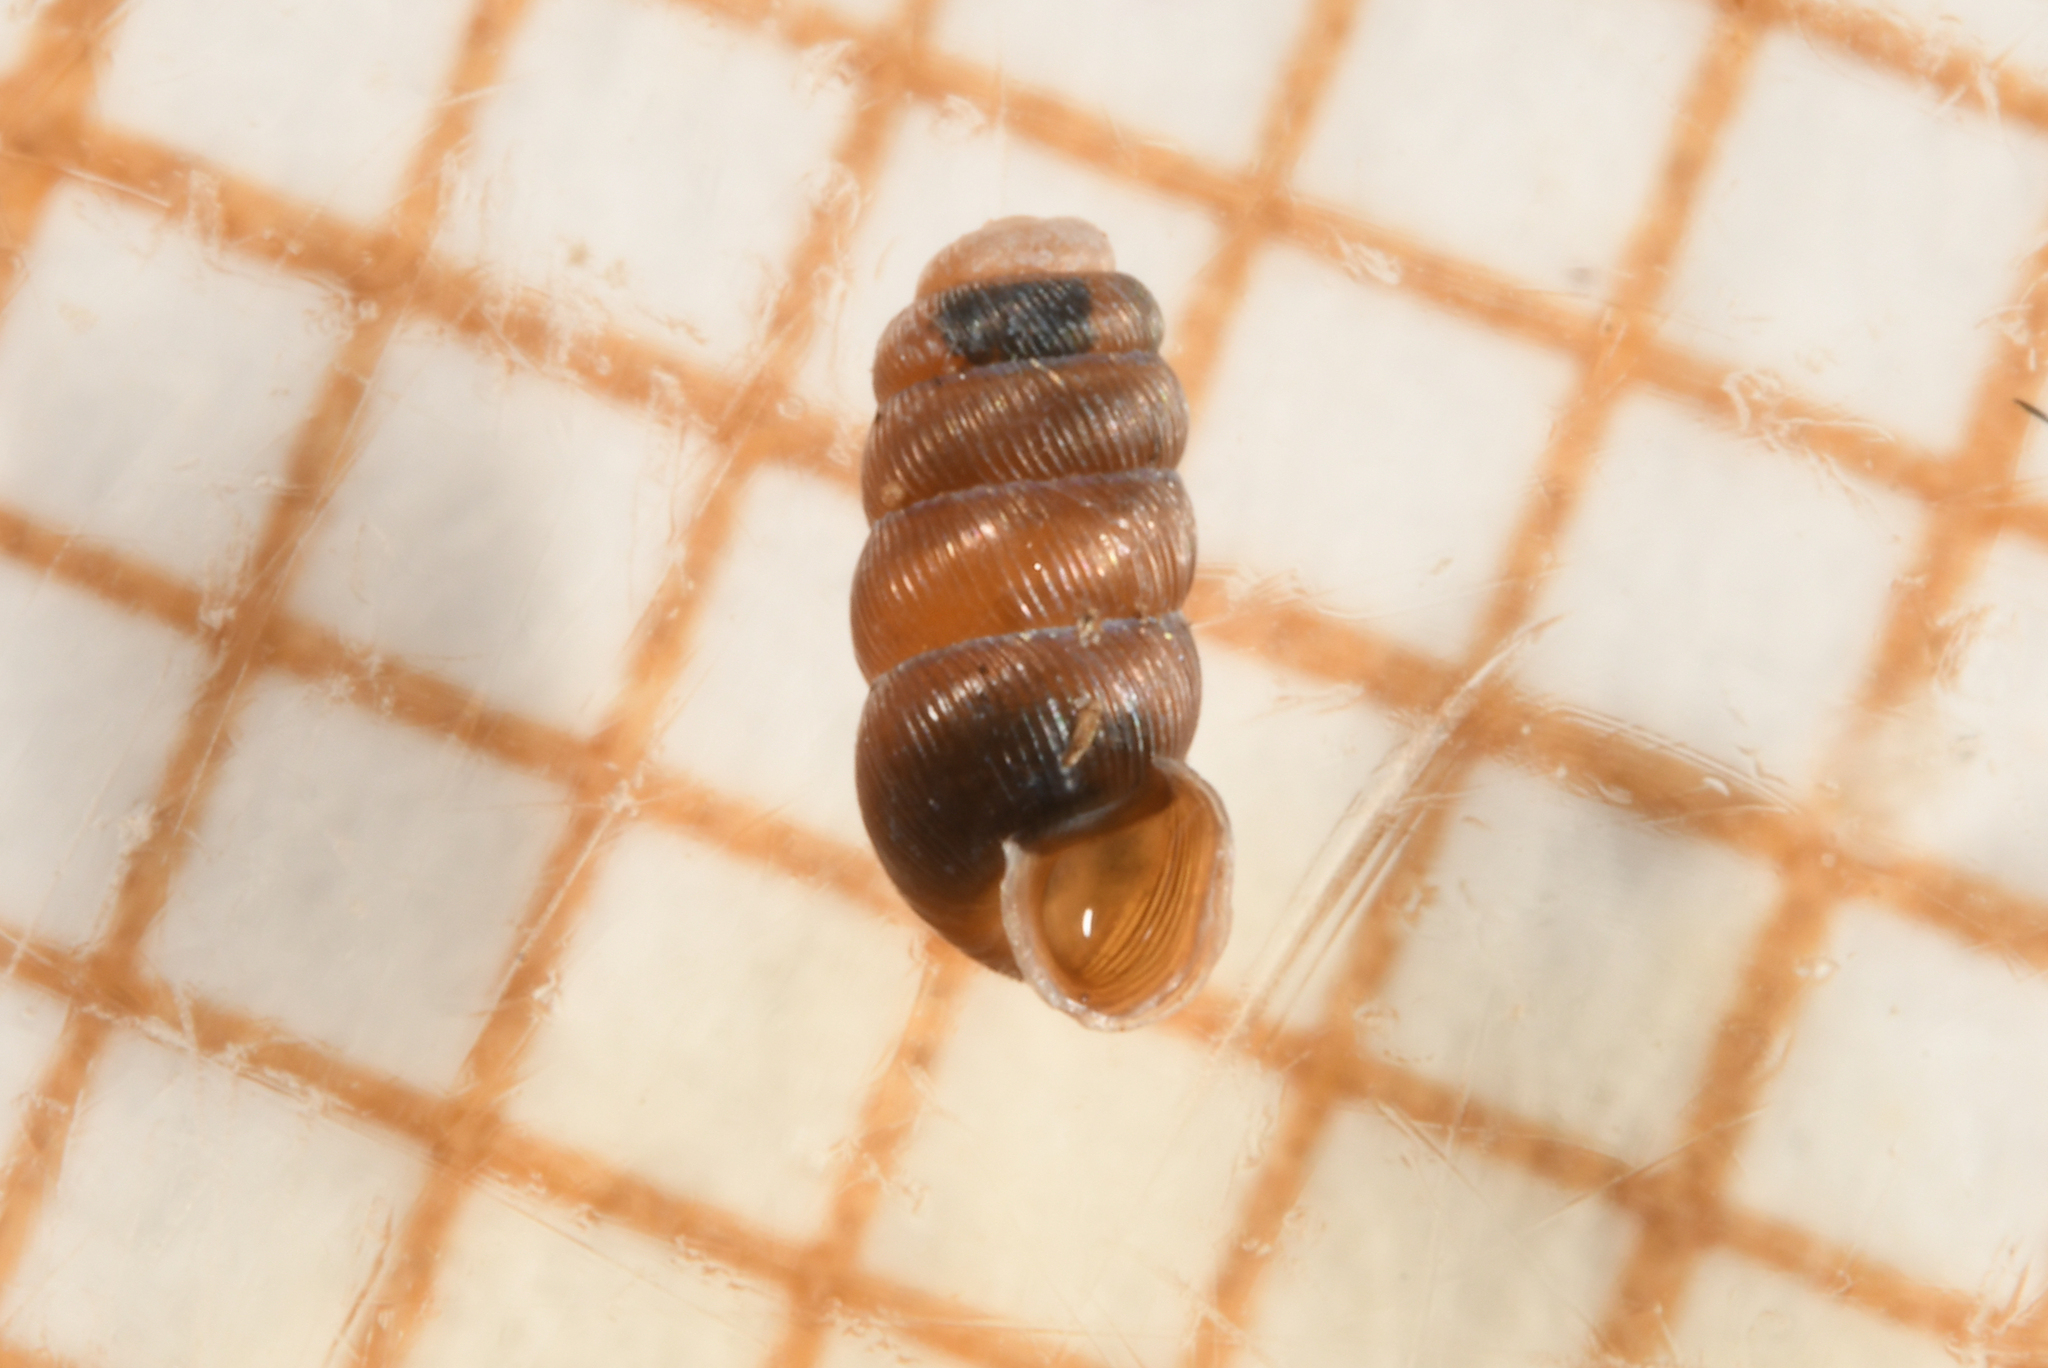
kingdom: Animalia
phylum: Mollusca
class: Gastropoda
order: Stylommatophora
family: Truncatellinidae
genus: Truncatellina
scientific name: Truncatellina cylindrica
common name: Cylindrical whorl snail
